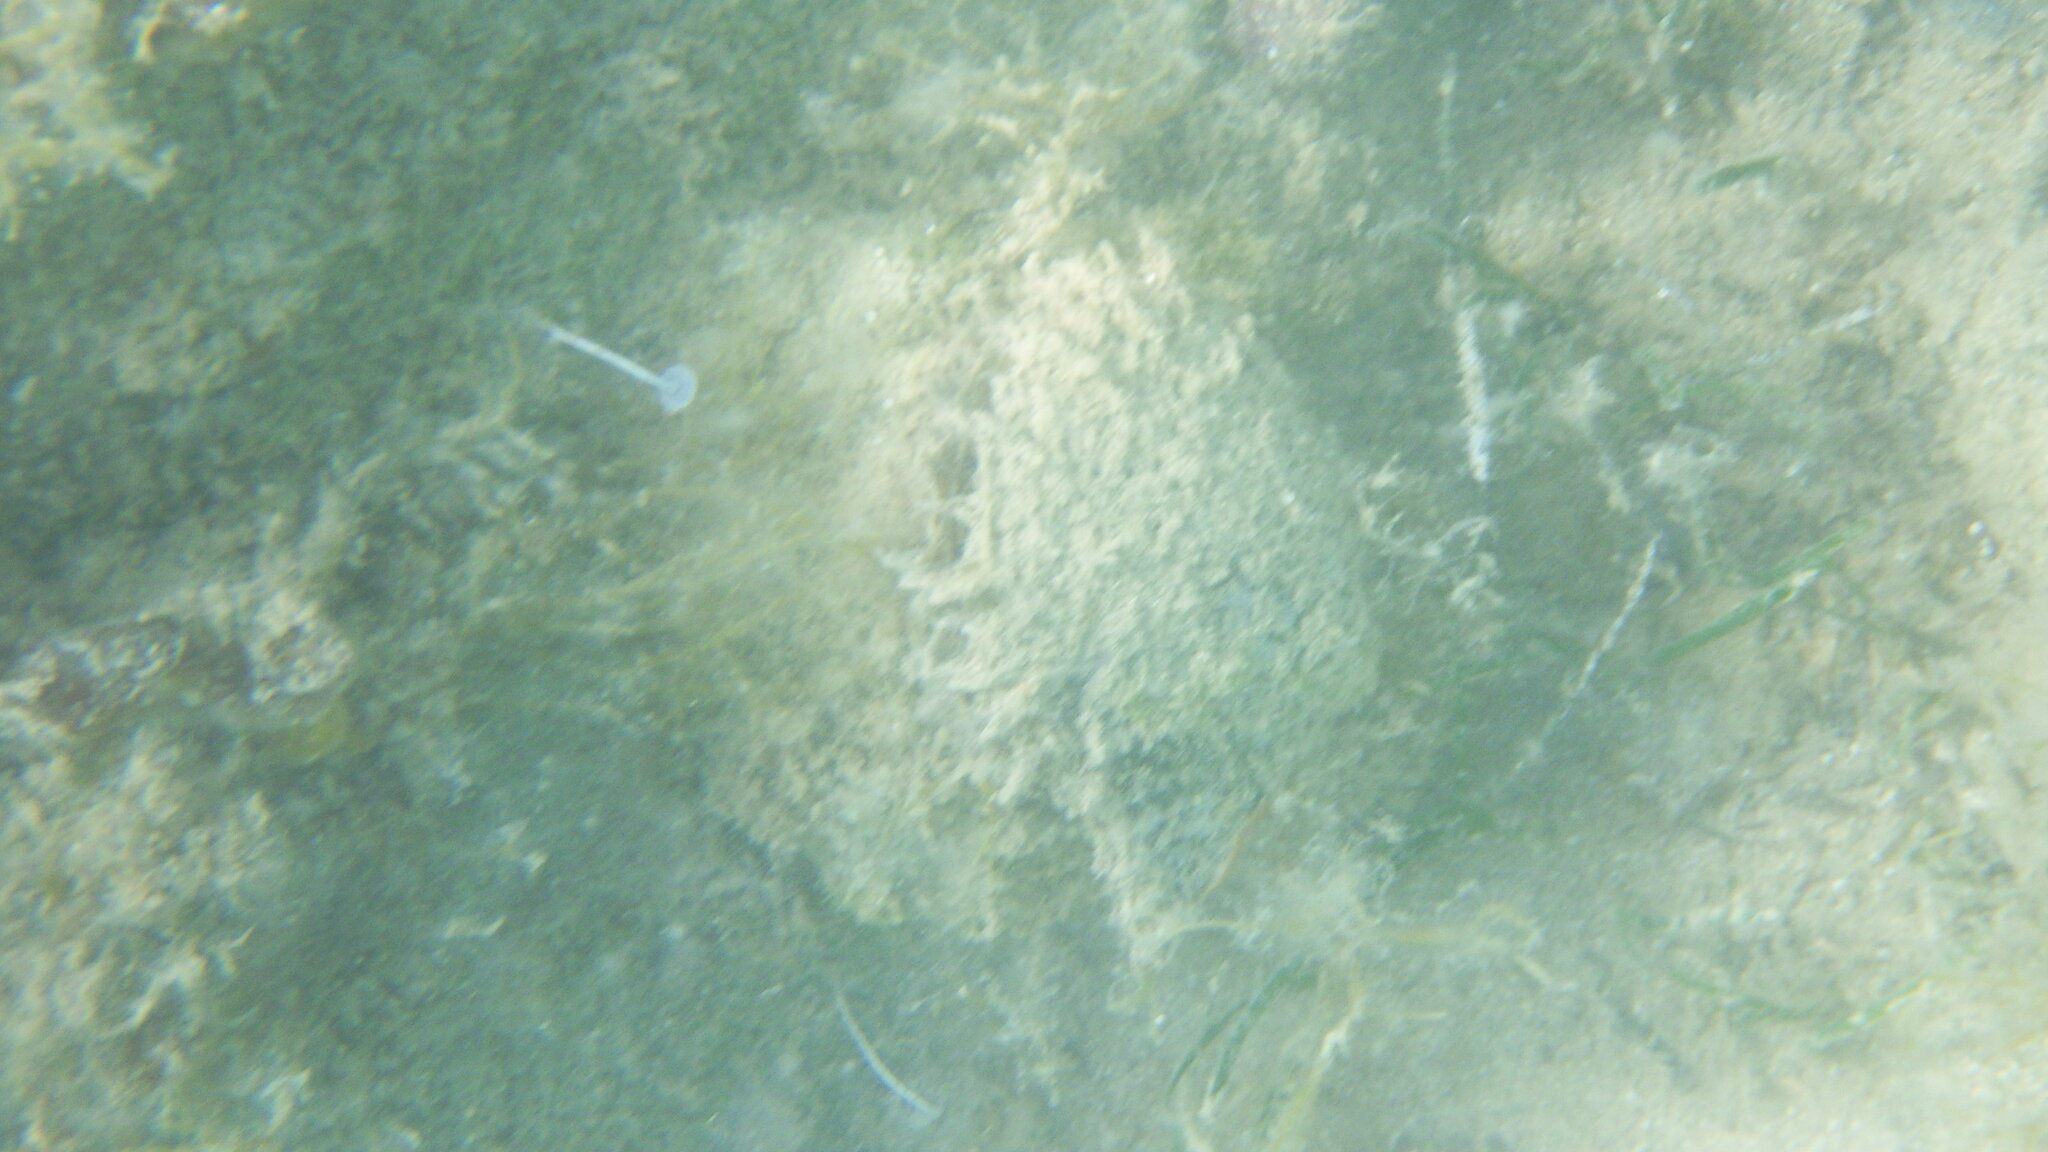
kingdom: Animalia
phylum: Mollusca
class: Bivalvia
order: Ostreida
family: Pinnidae
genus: Pinna
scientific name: Pinna nobilis
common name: Fan mussel
